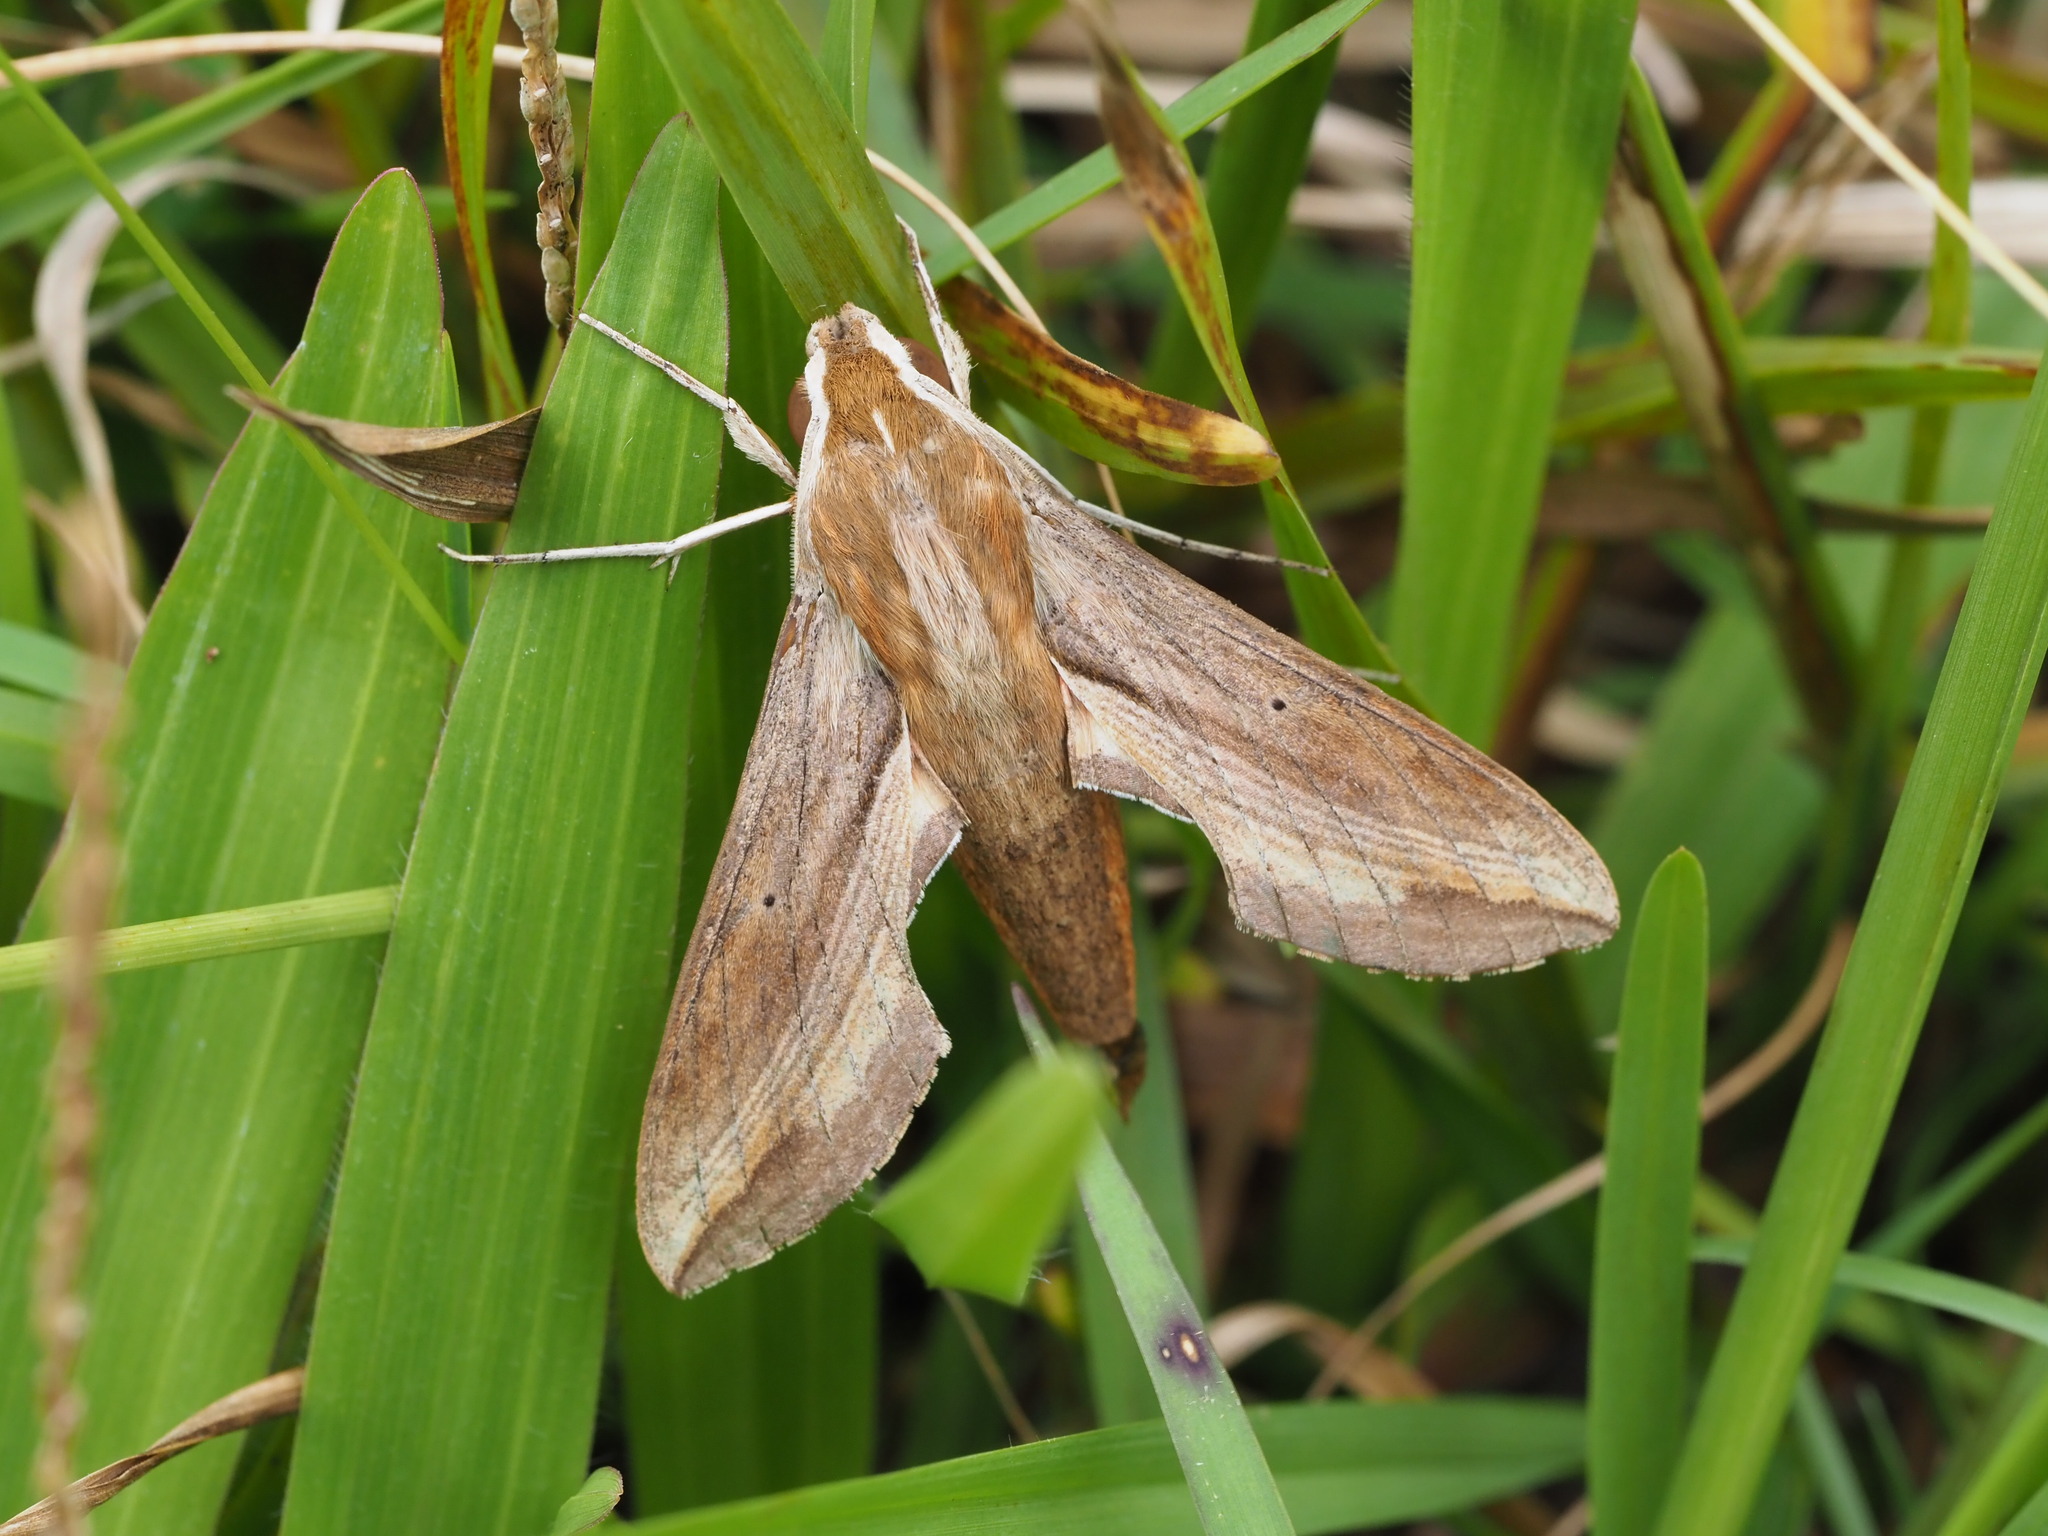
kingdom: Animalia
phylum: Arthropoda
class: Insecta
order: Lepidoptera
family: Sphingidae
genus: Hippotion
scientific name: Hippotion rosetta
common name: Vine hawk moth
